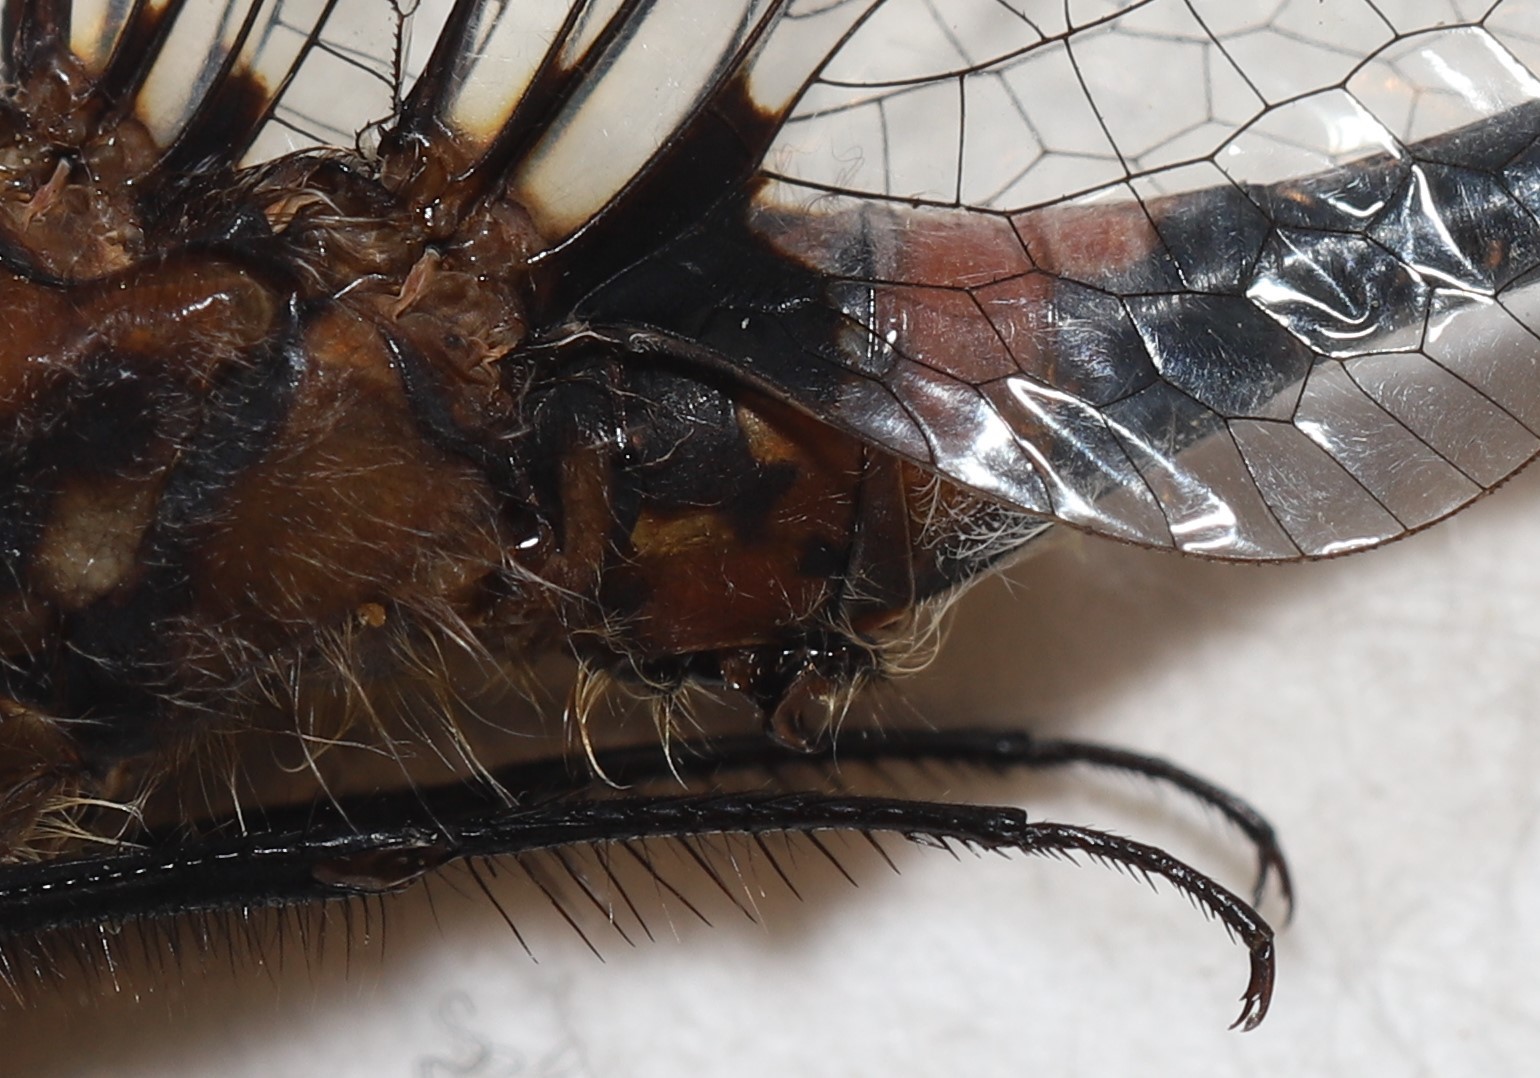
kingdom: Animalia
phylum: Arthropoda
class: Insecta
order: Odonata
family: Libellulidae
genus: Leucorrhinia
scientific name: Leucorrhinia proxima
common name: Belted whiteface
